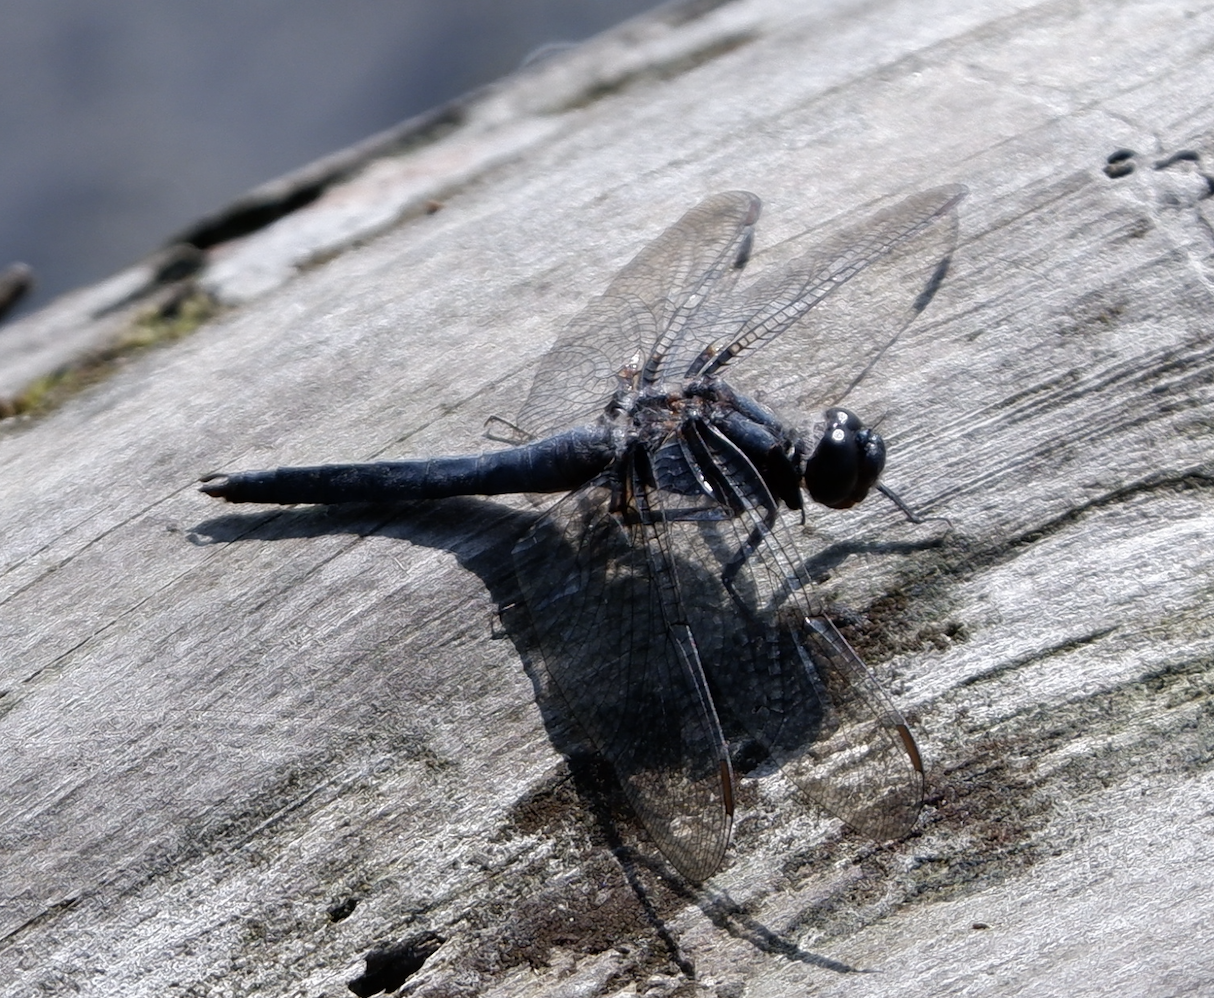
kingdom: Animalia
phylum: Arthropoda
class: Insecta
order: Odonata
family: Libellulidae
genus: Ladona
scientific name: Ladona deplanata
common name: Blue corporal
